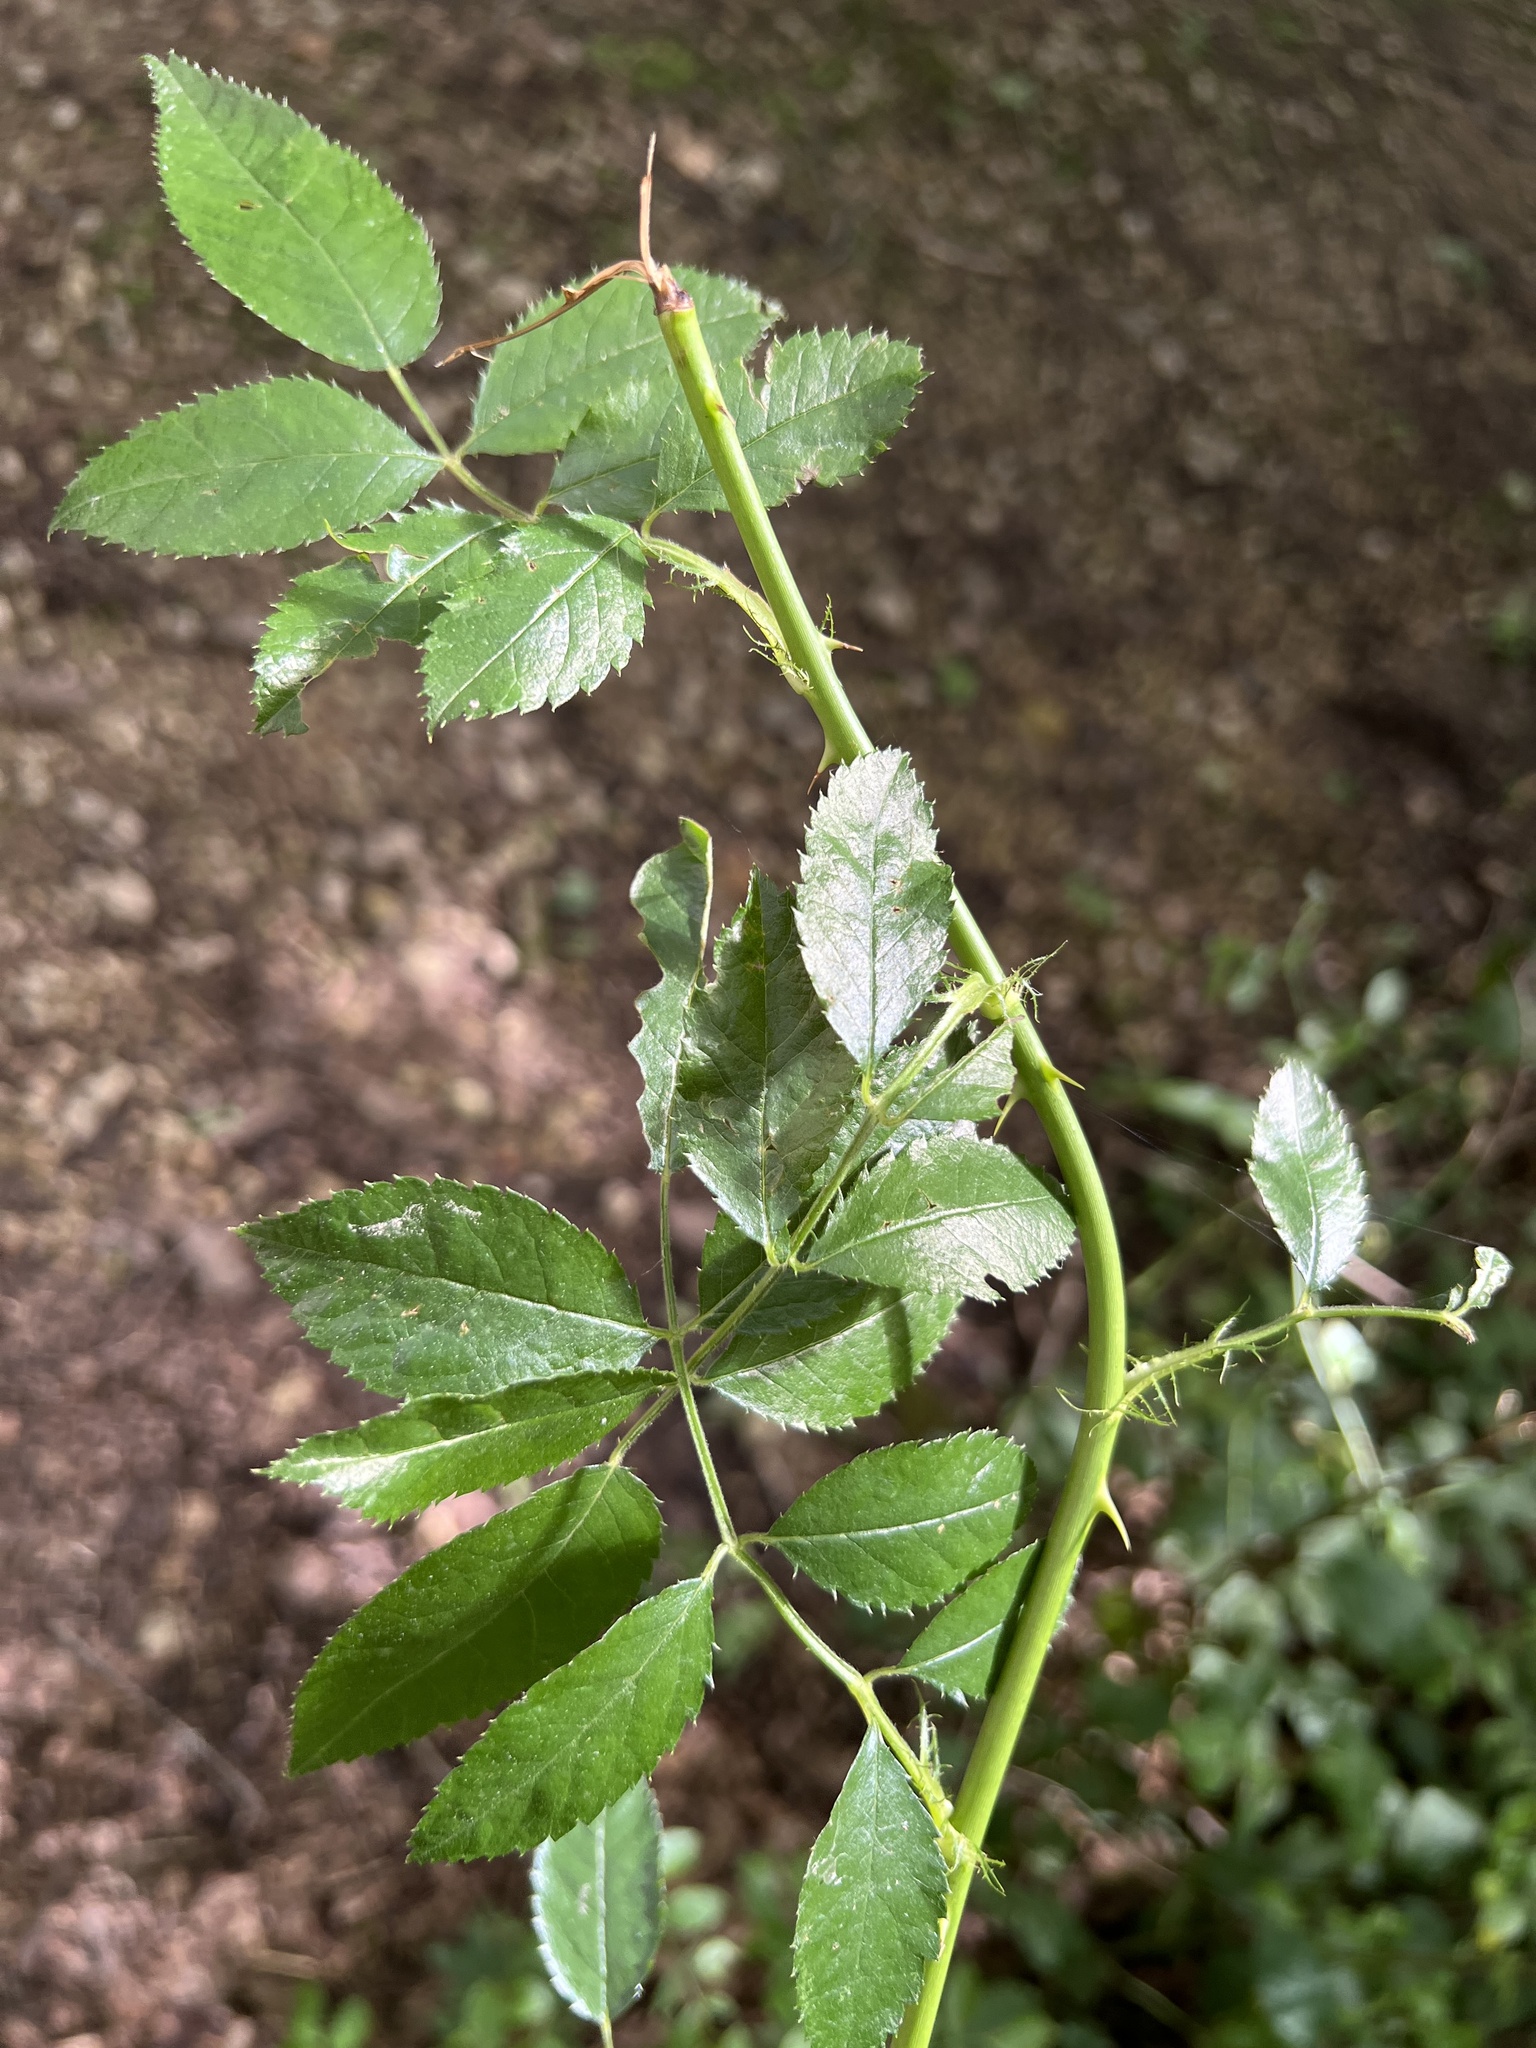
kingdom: Plantae
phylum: Tracheophyta
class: Magnoliopsida
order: Rosales
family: Rosaceae
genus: Rosa
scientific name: Rosa multiflora
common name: Multiflora rose
